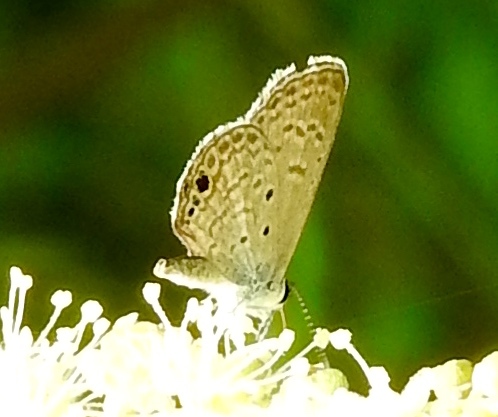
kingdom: Animalia
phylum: Arthropoda
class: Insecta
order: Lepidoptera
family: Lycaenidae
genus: Hemiargus
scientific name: Hemiargus ceraunus
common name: Ceraunus blue
